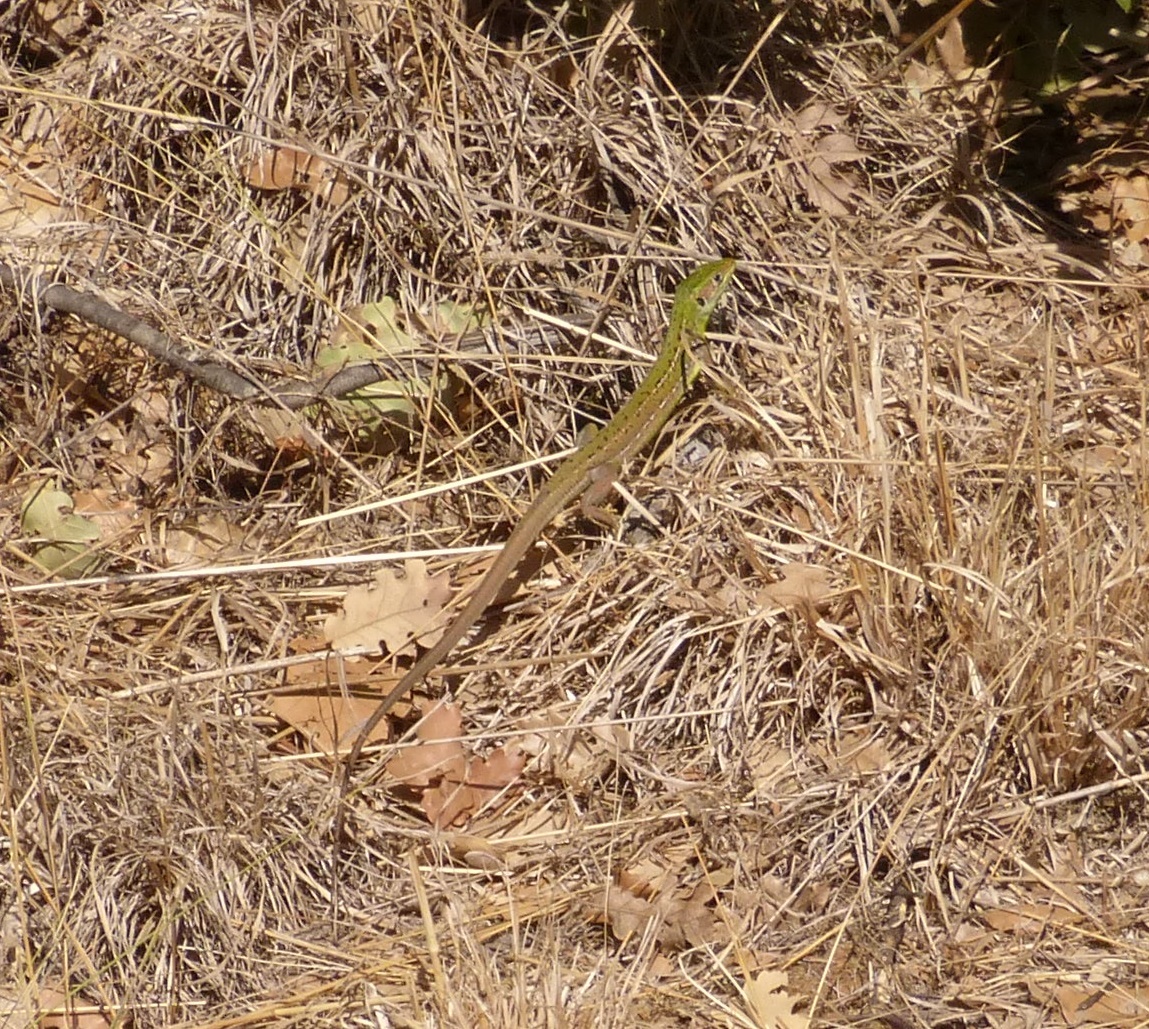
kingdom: Animalia
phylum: Chordata
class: Squamata
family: Lacertidae
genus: Lacerta
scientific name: Lacerta bilineata
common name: Western green lizard
